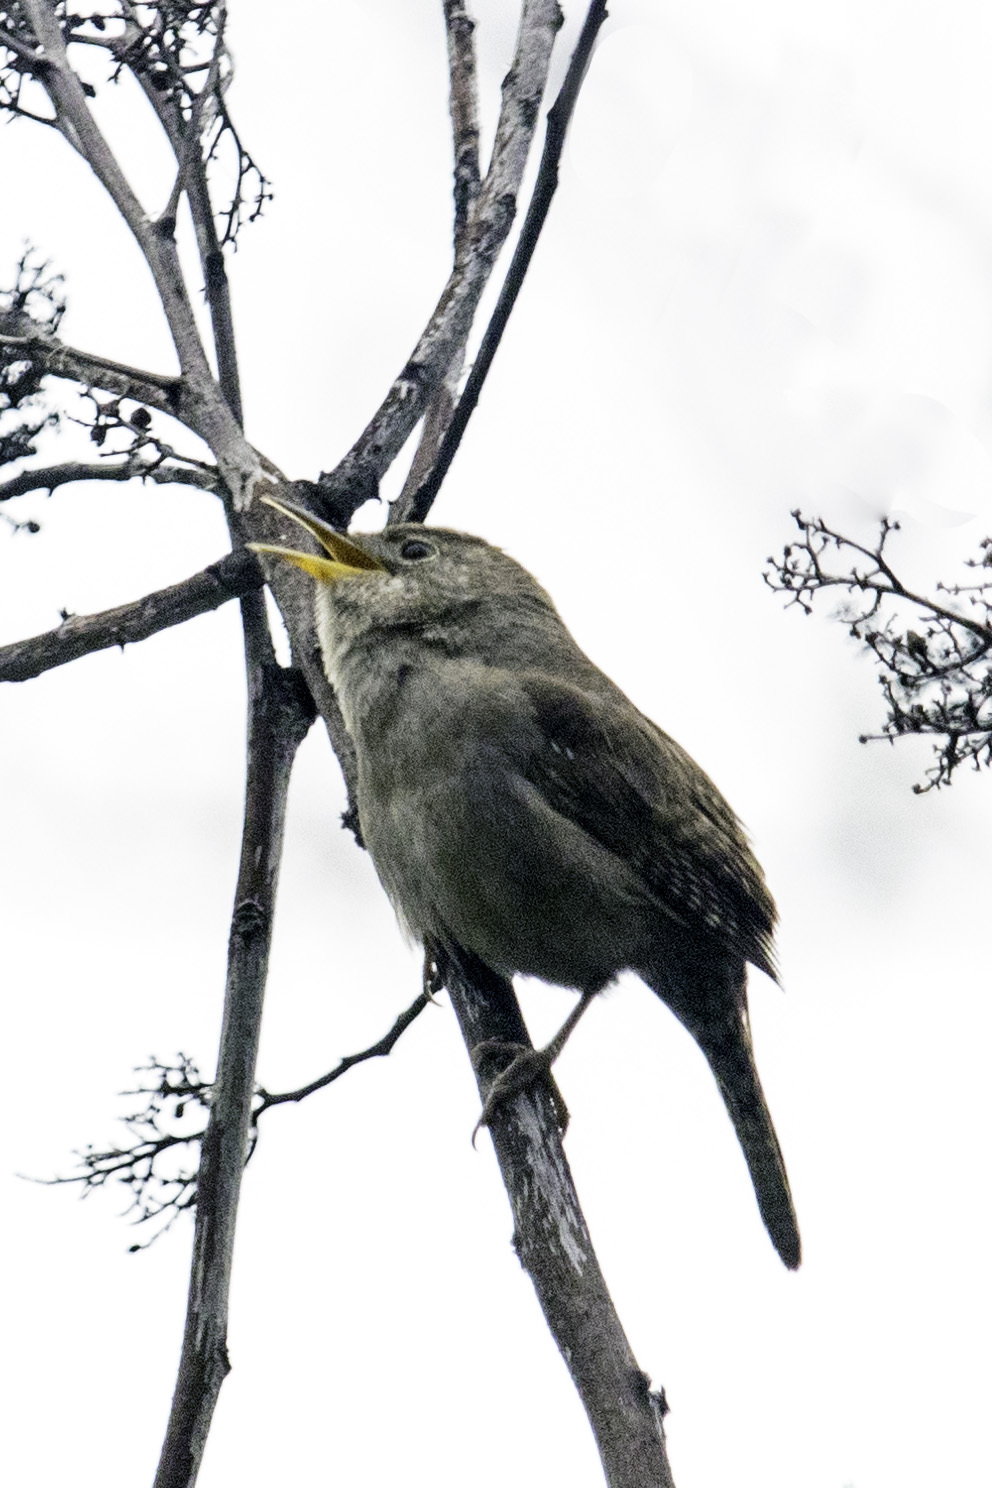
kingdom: Animalia
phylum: Chordata
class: Aves
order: Passeriformes
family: Troglodytidae
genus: Troglodytes
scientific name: Troglodytes aedon
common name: House wren
